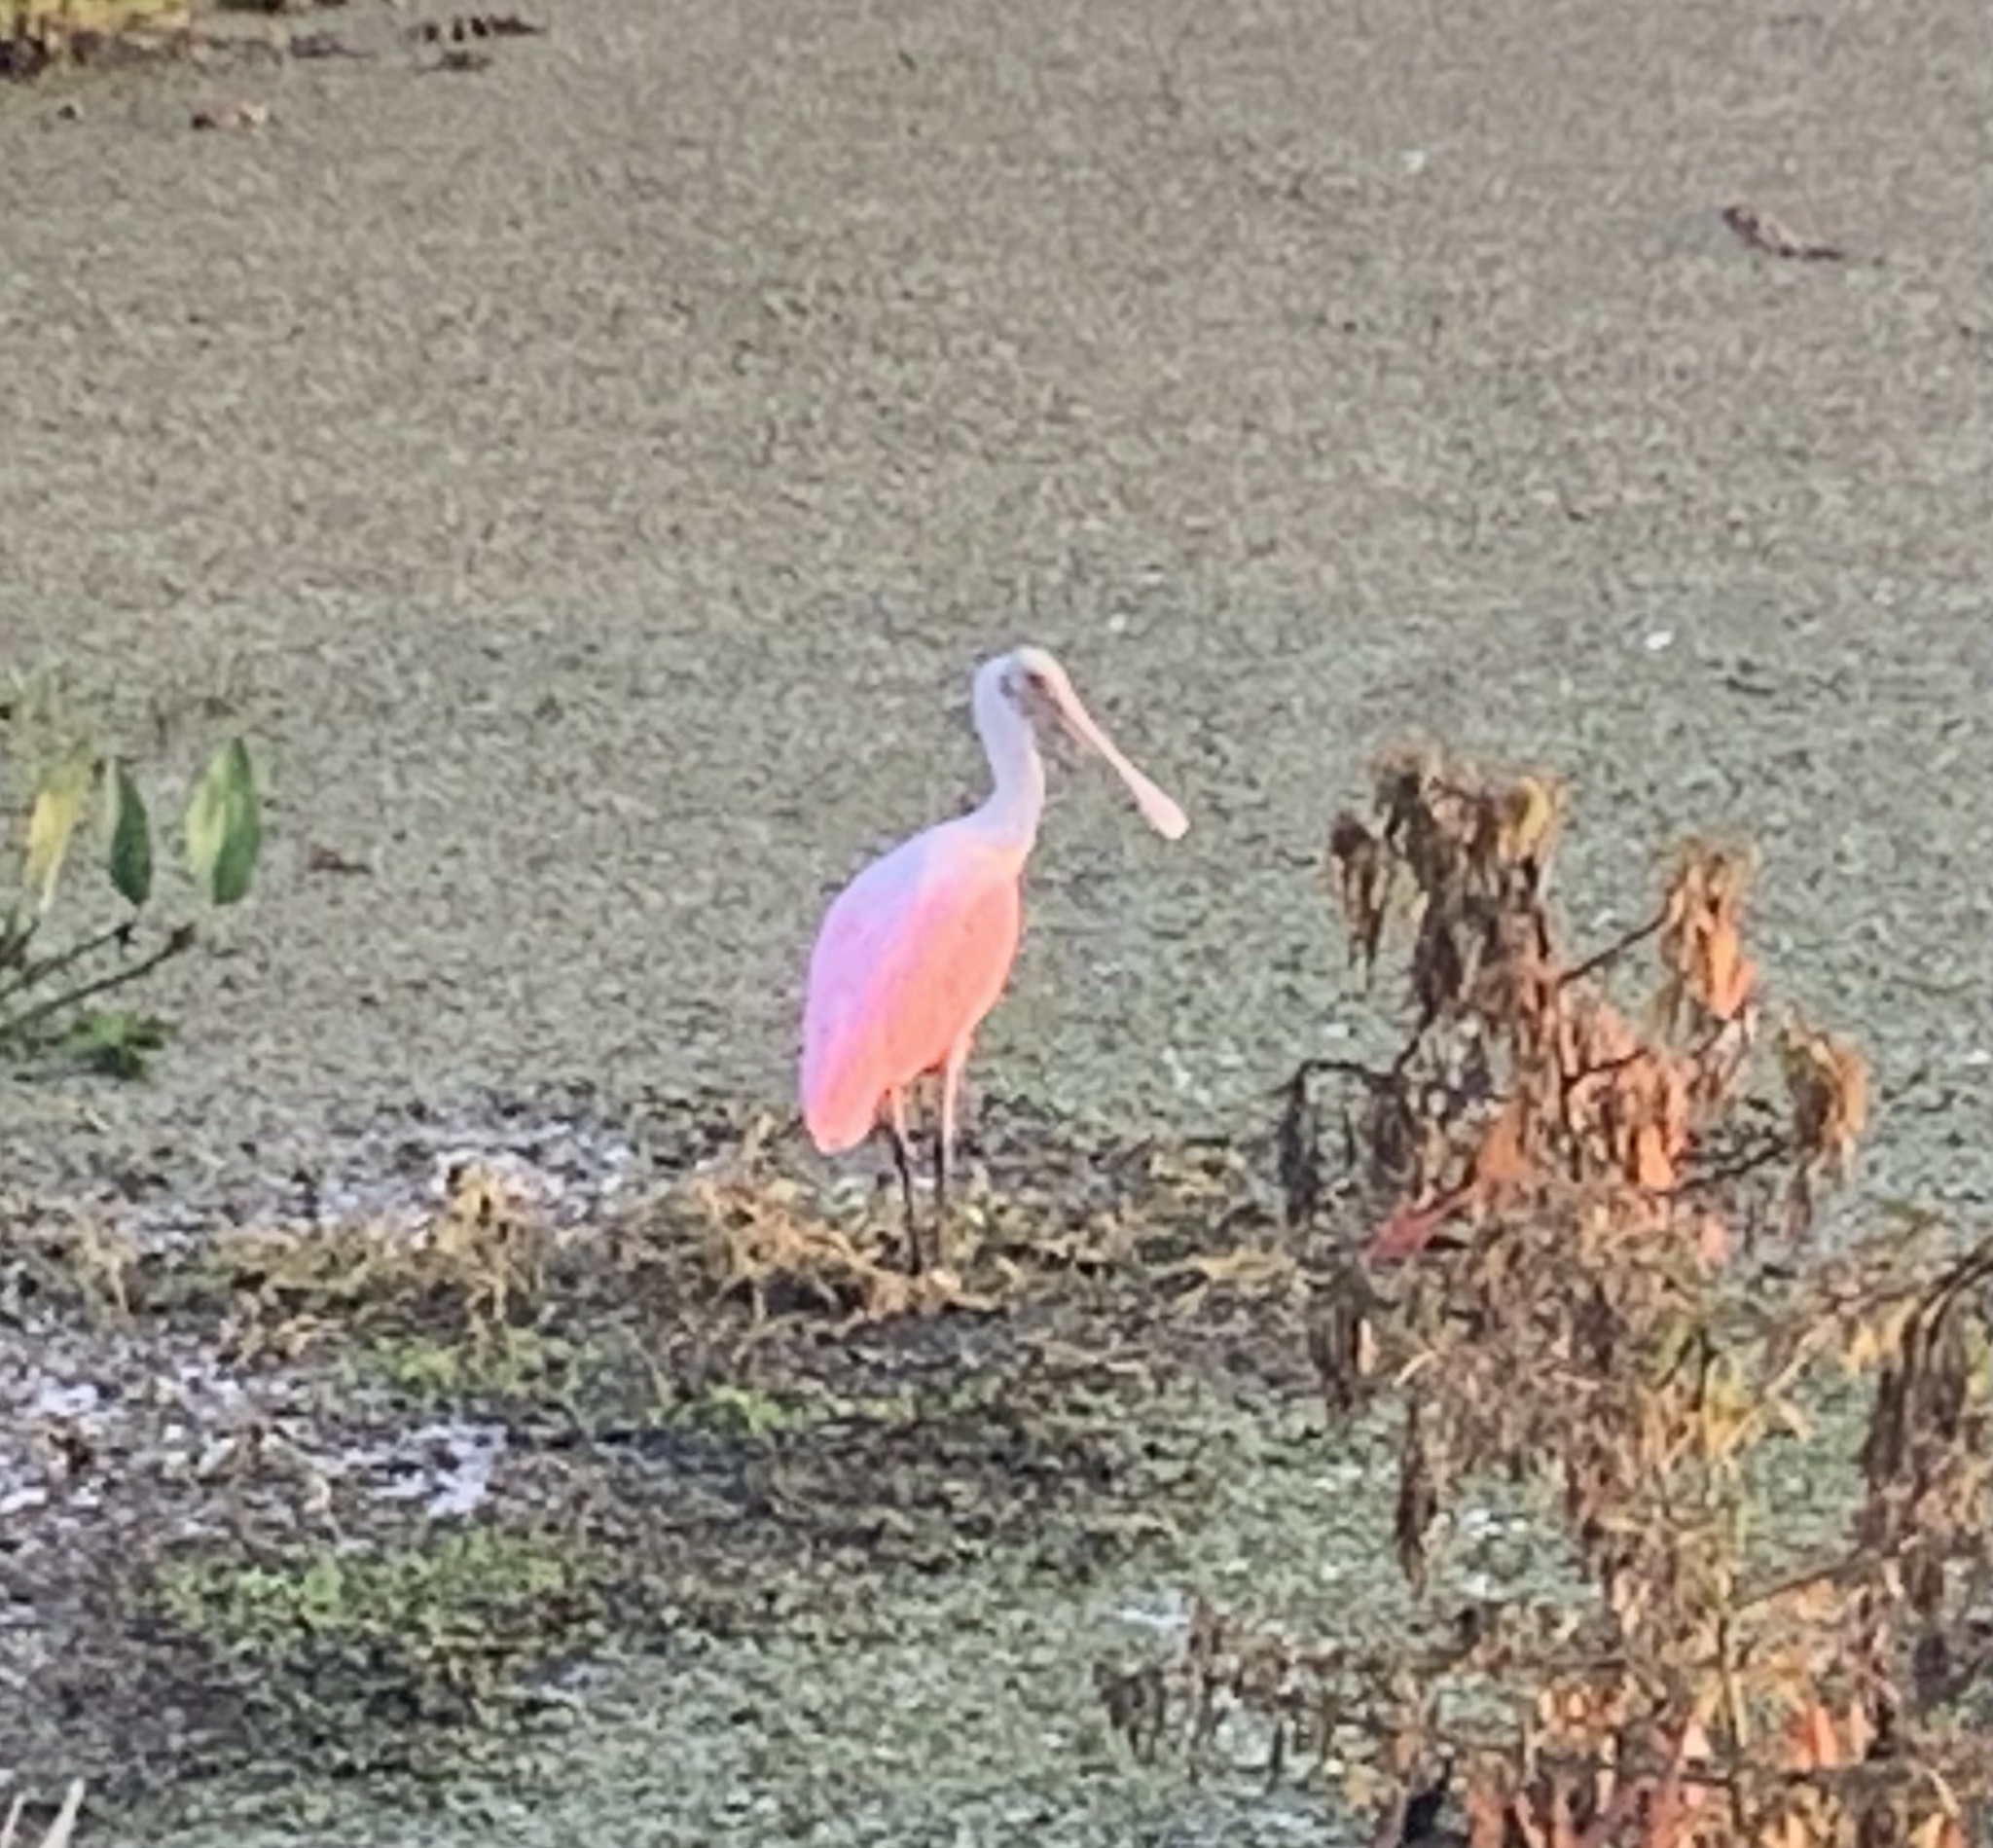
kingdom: Animalia
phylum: Chordata
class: Aves
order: Pelecaniformes
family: Threskiornithidae
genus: Platalea
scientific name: Platalea ajaja
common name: Roseate spoonbill
